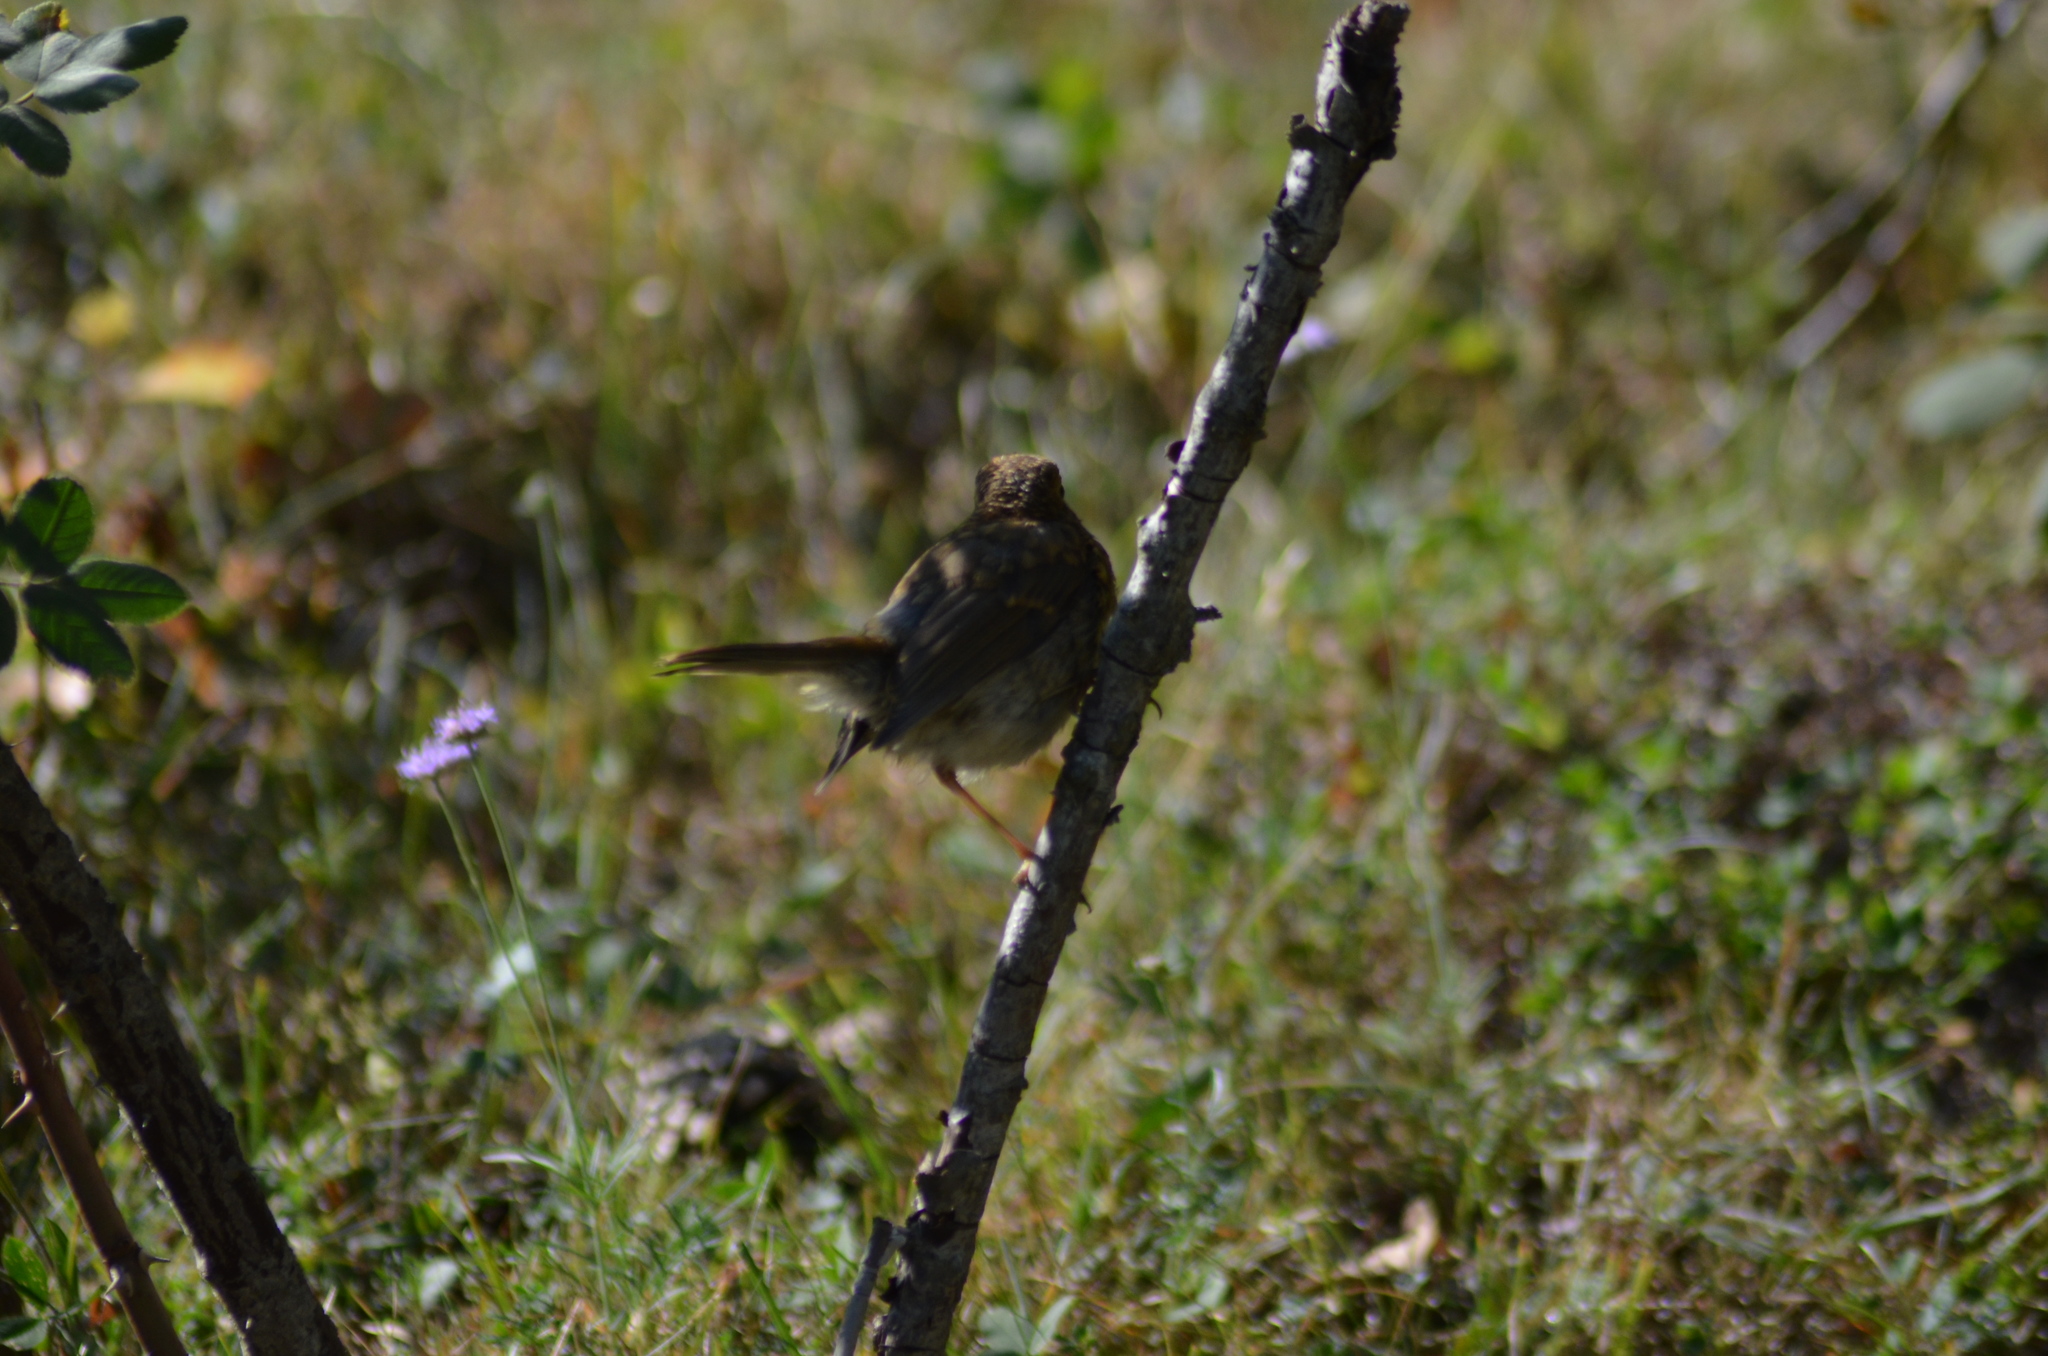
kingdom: Animalia
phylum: Chordata
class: Aves
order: Passeriformes
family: Muscicapidae
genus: Erithacus
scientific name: Erithacus rubecula
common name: European robin
